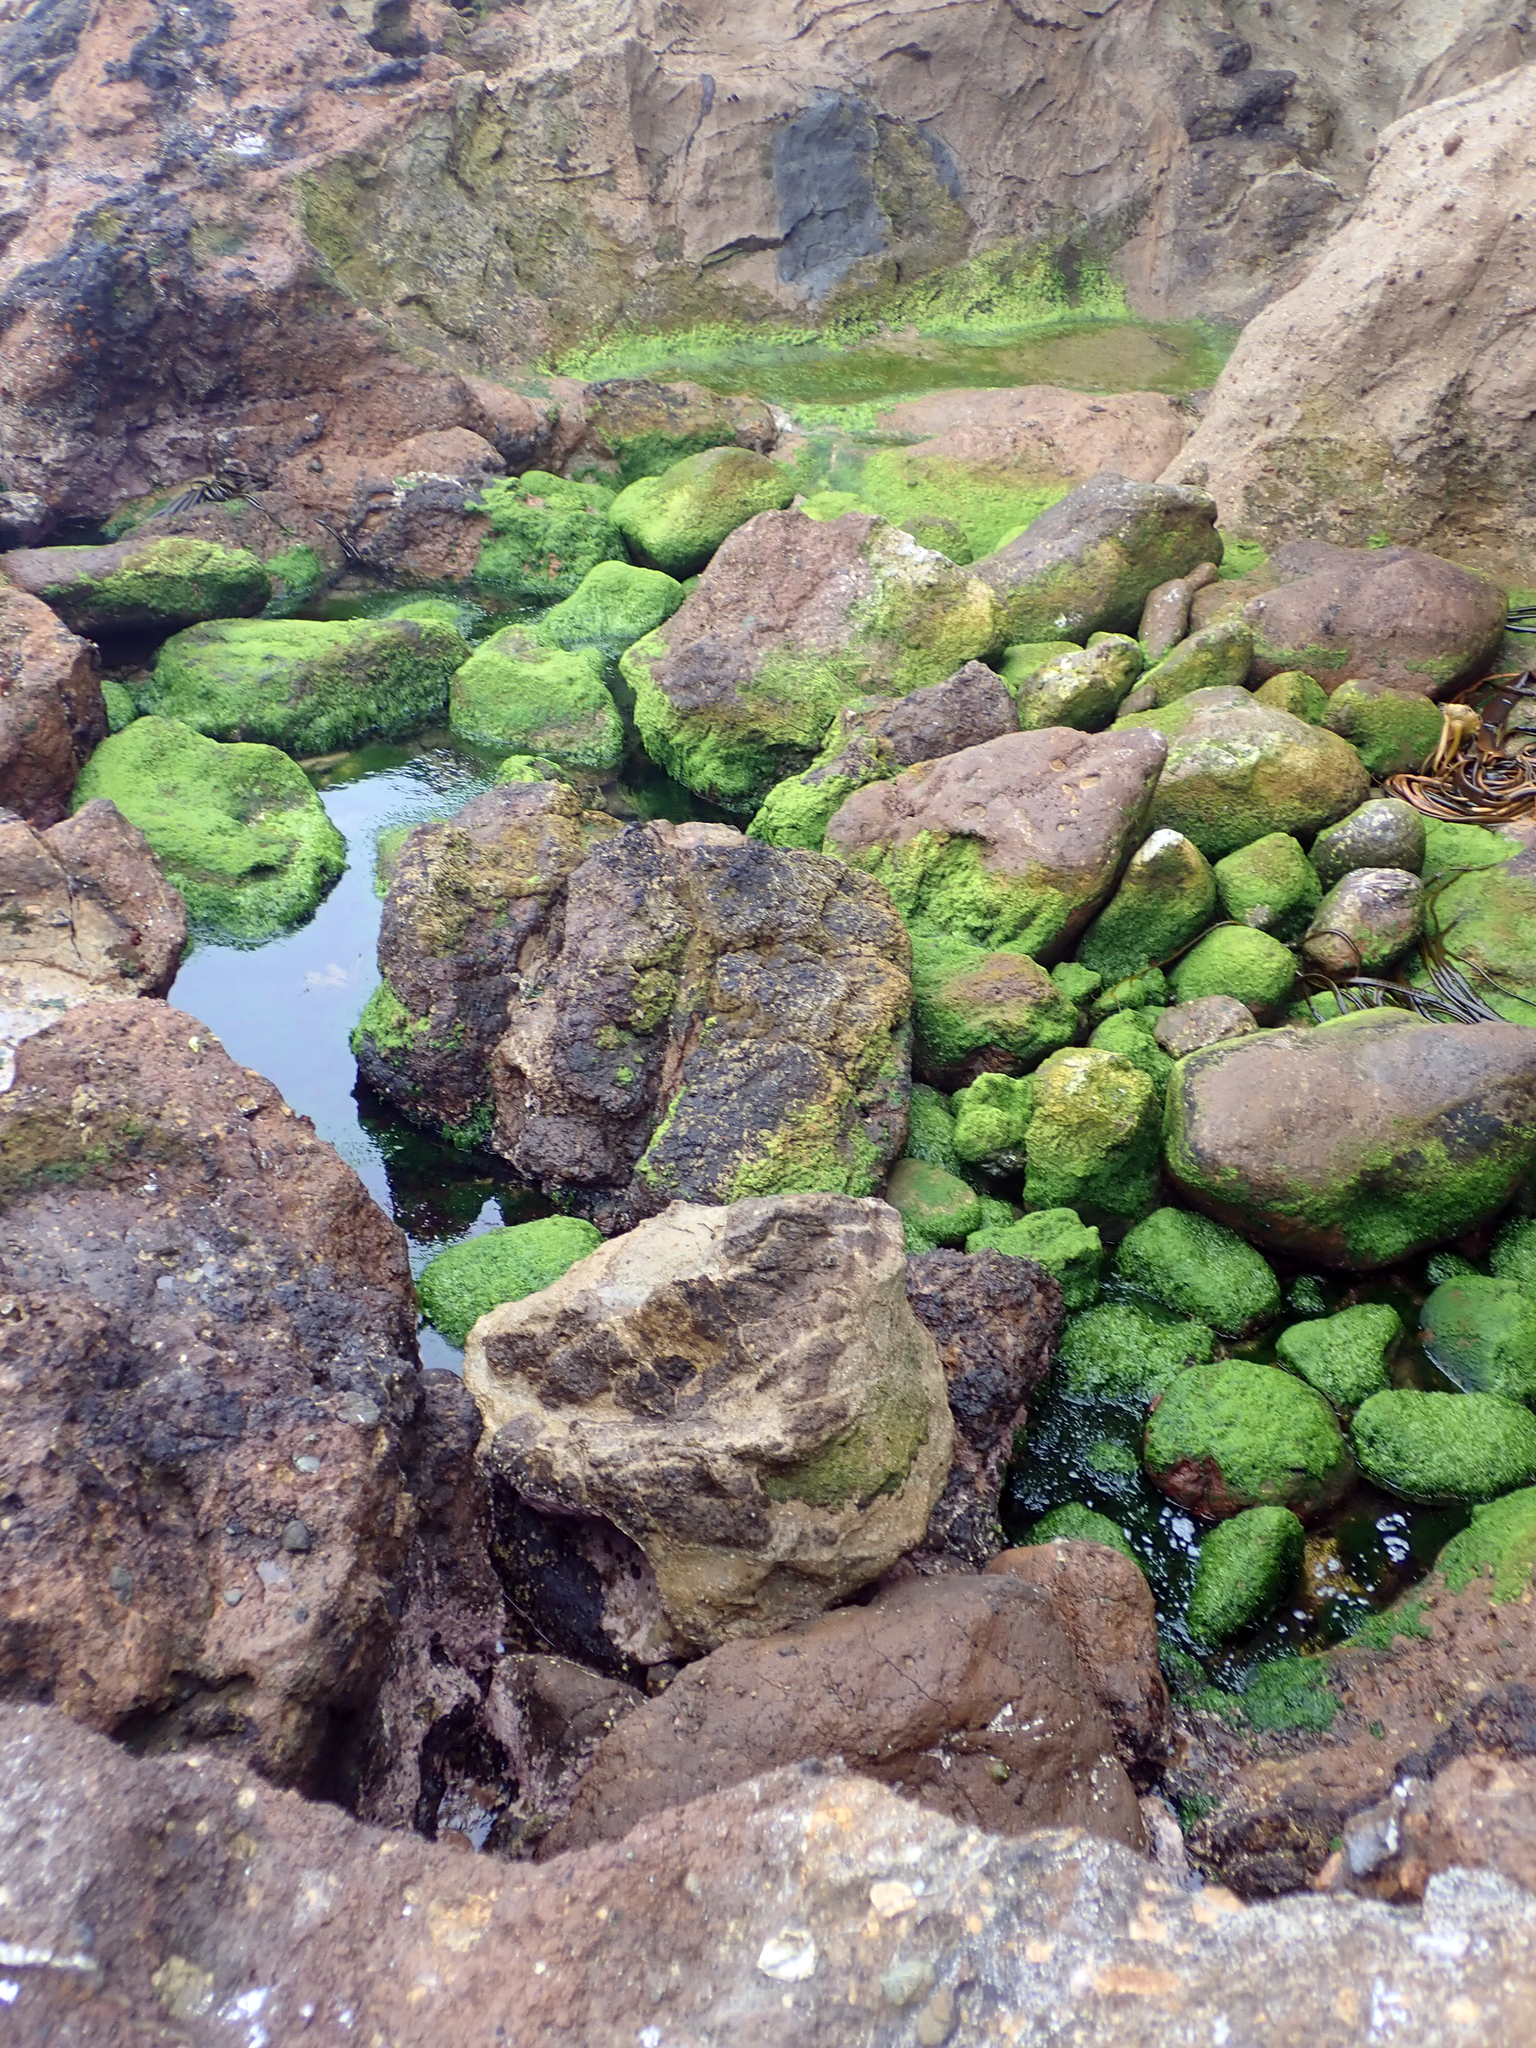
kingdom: Plantae
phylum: Chlorophyta
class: Ulvophyceae
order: Ulvales
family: Ulvaceae
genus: Ulva
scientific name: Ulva compressa
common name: Thread weed
